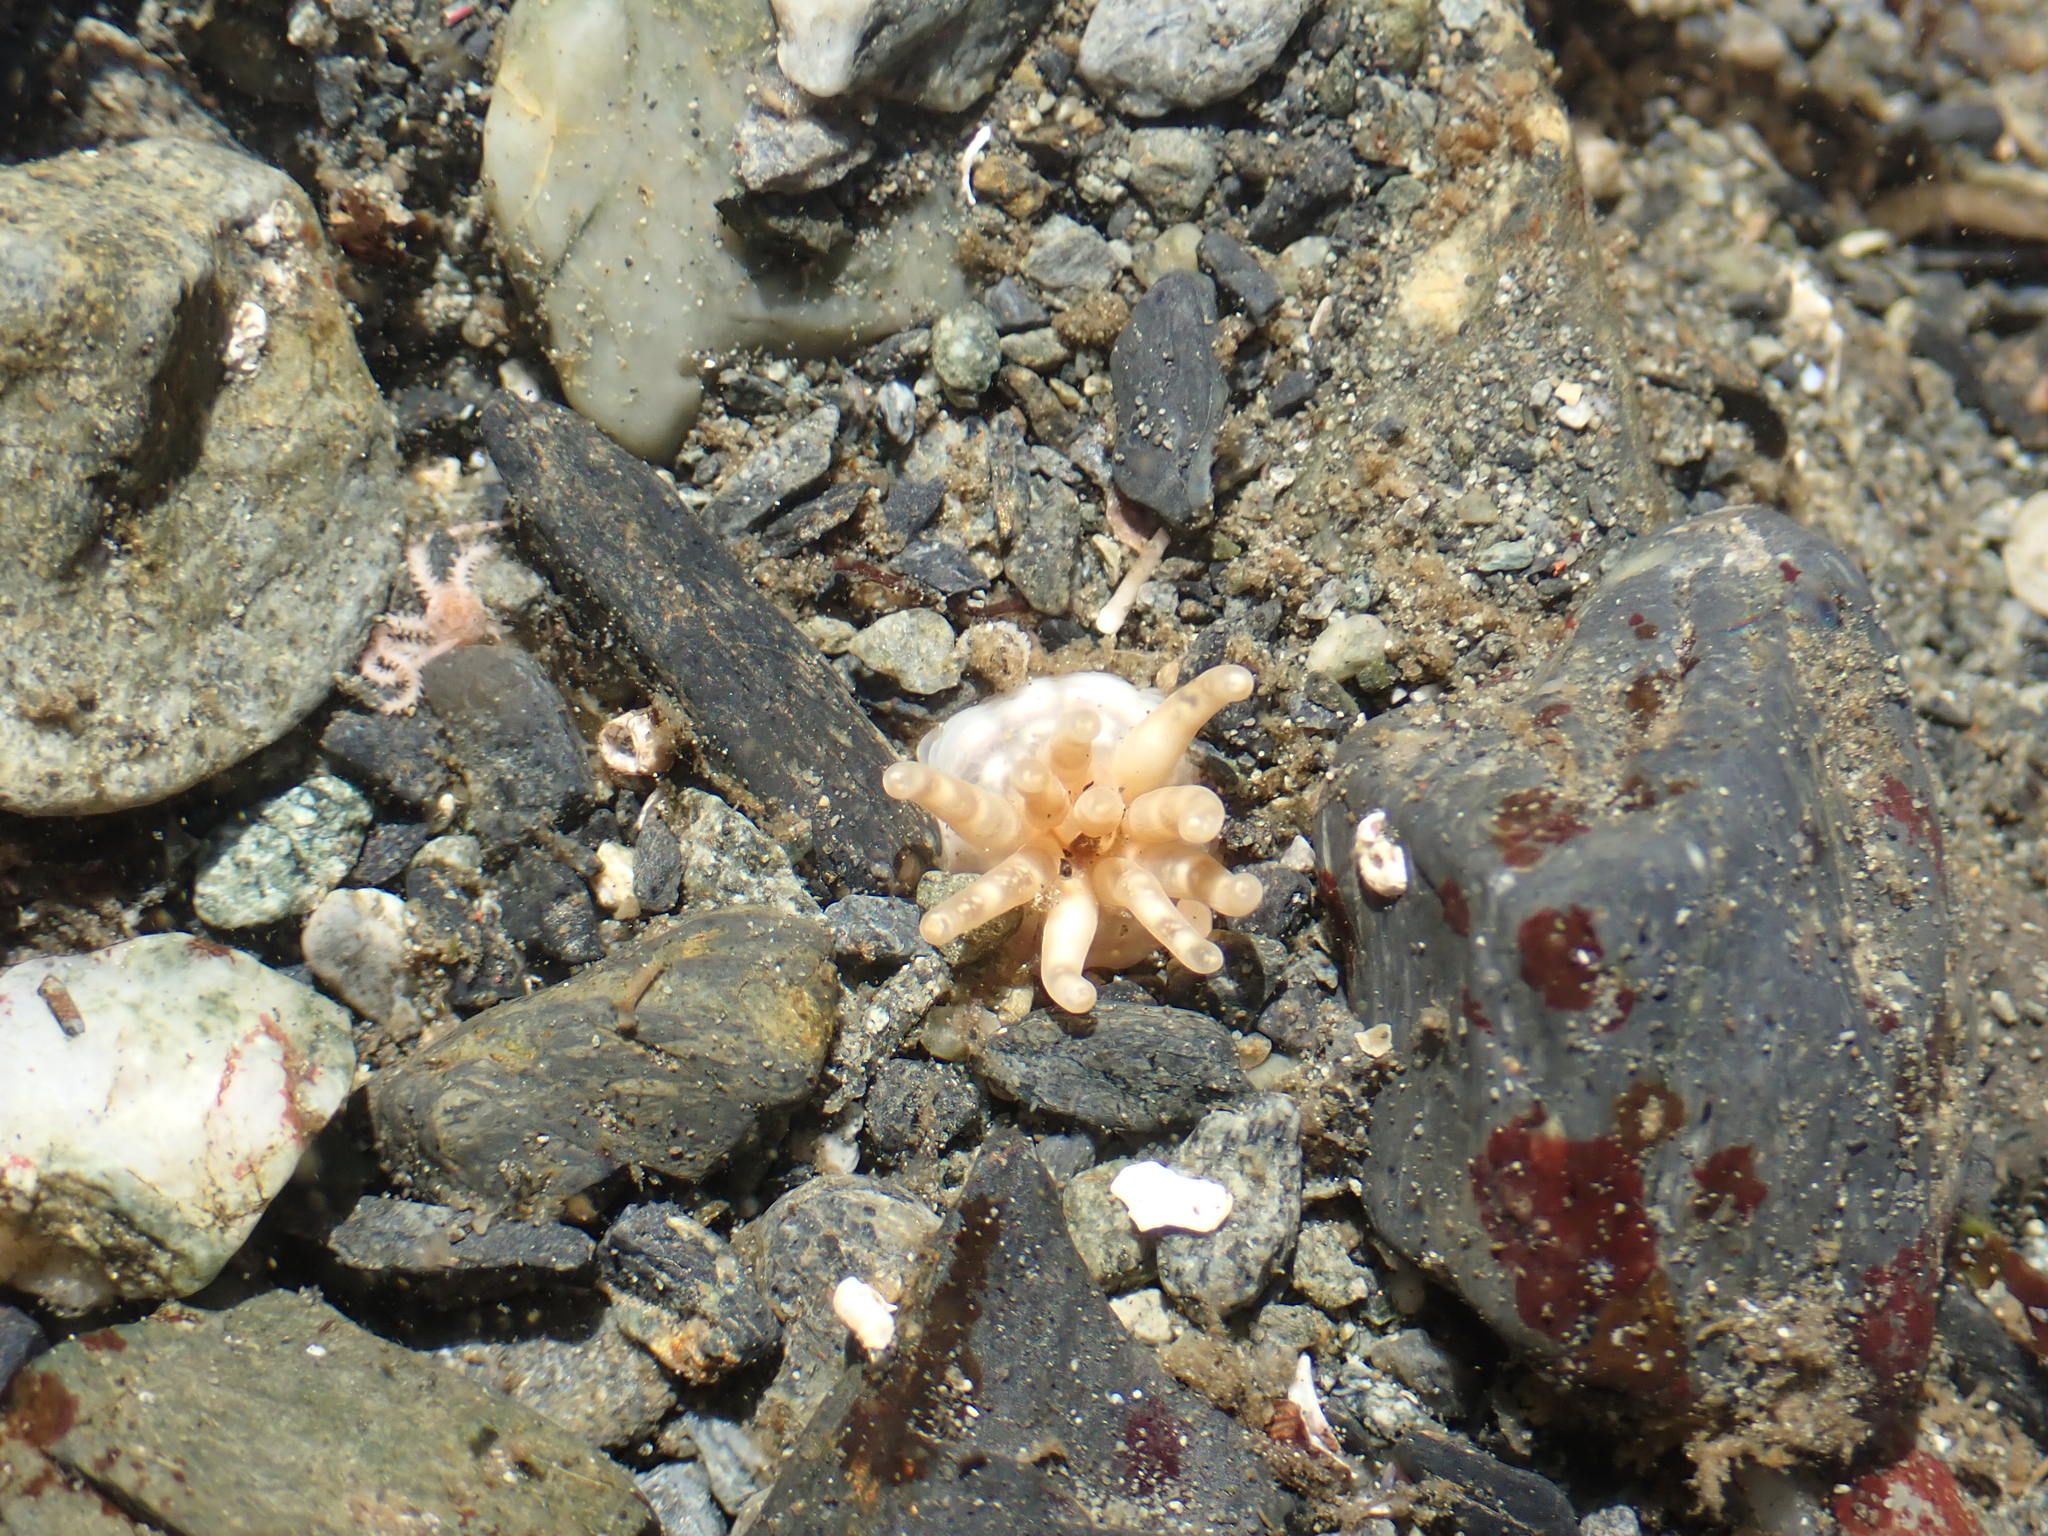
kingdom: Animalia
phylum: Cnidaria
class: Anthozoa
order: Actiniaria
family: Halcampidae
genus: Halcampa
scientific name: Halcampa decemtentaculata
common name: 10-tentacle burrowing anemone
